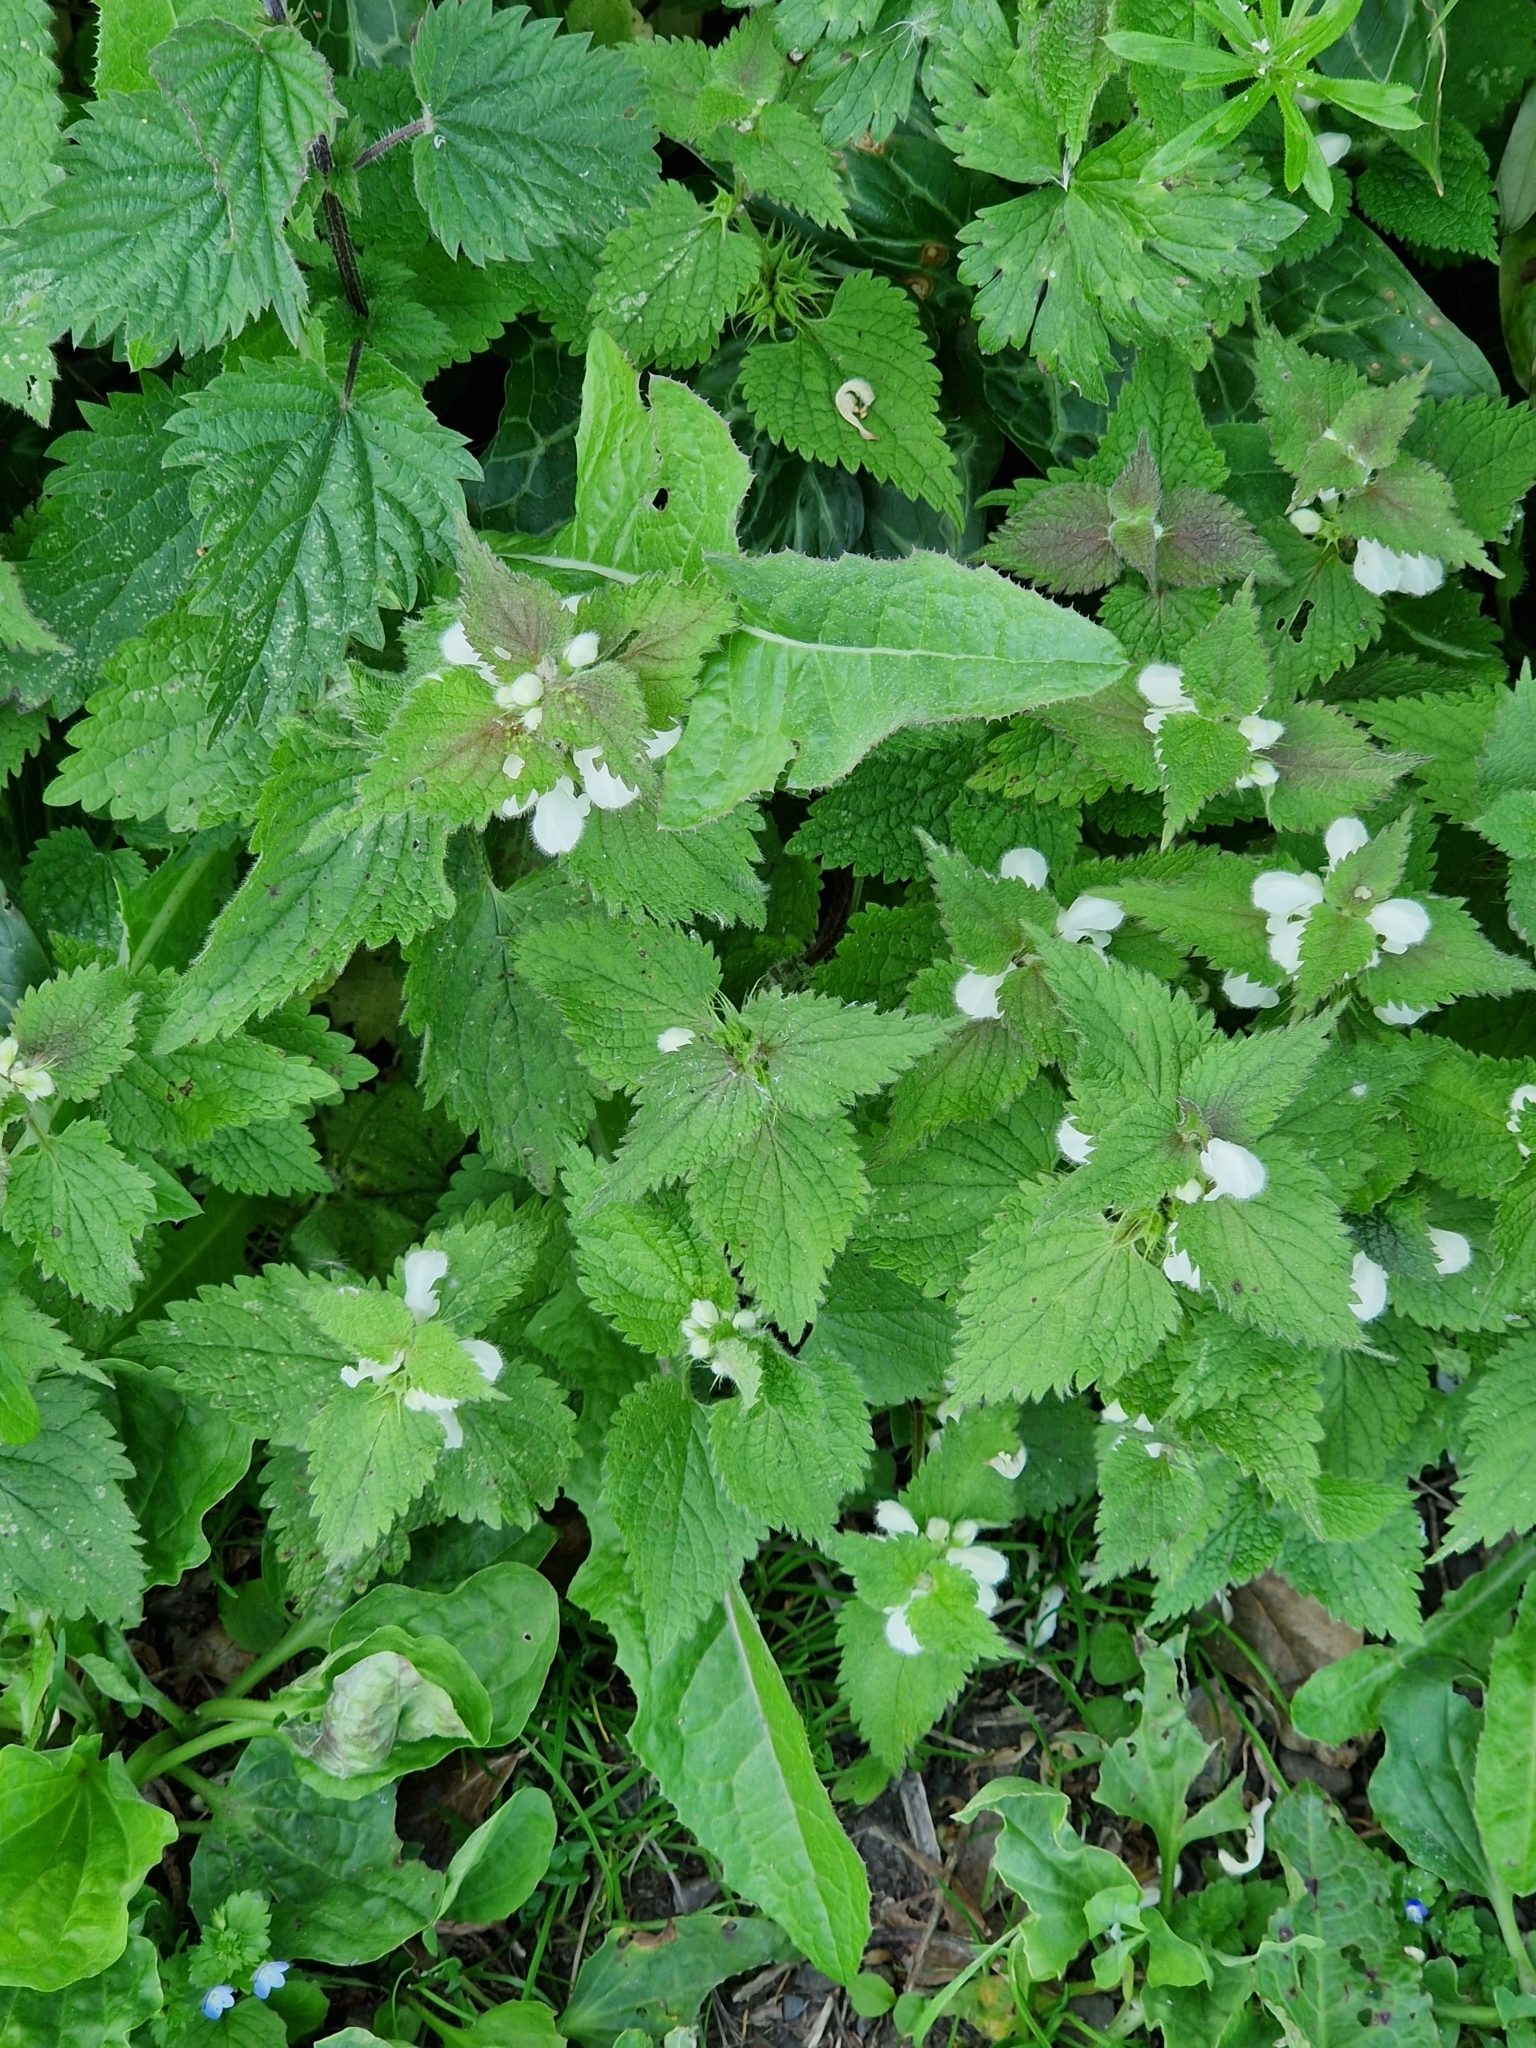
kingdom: Plantae
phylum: Tracheophyta
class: Magnoliopsida
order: Lamiales
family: Lamiaceae
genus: Lamium
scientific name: Lamium album
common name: White dead-nettle
